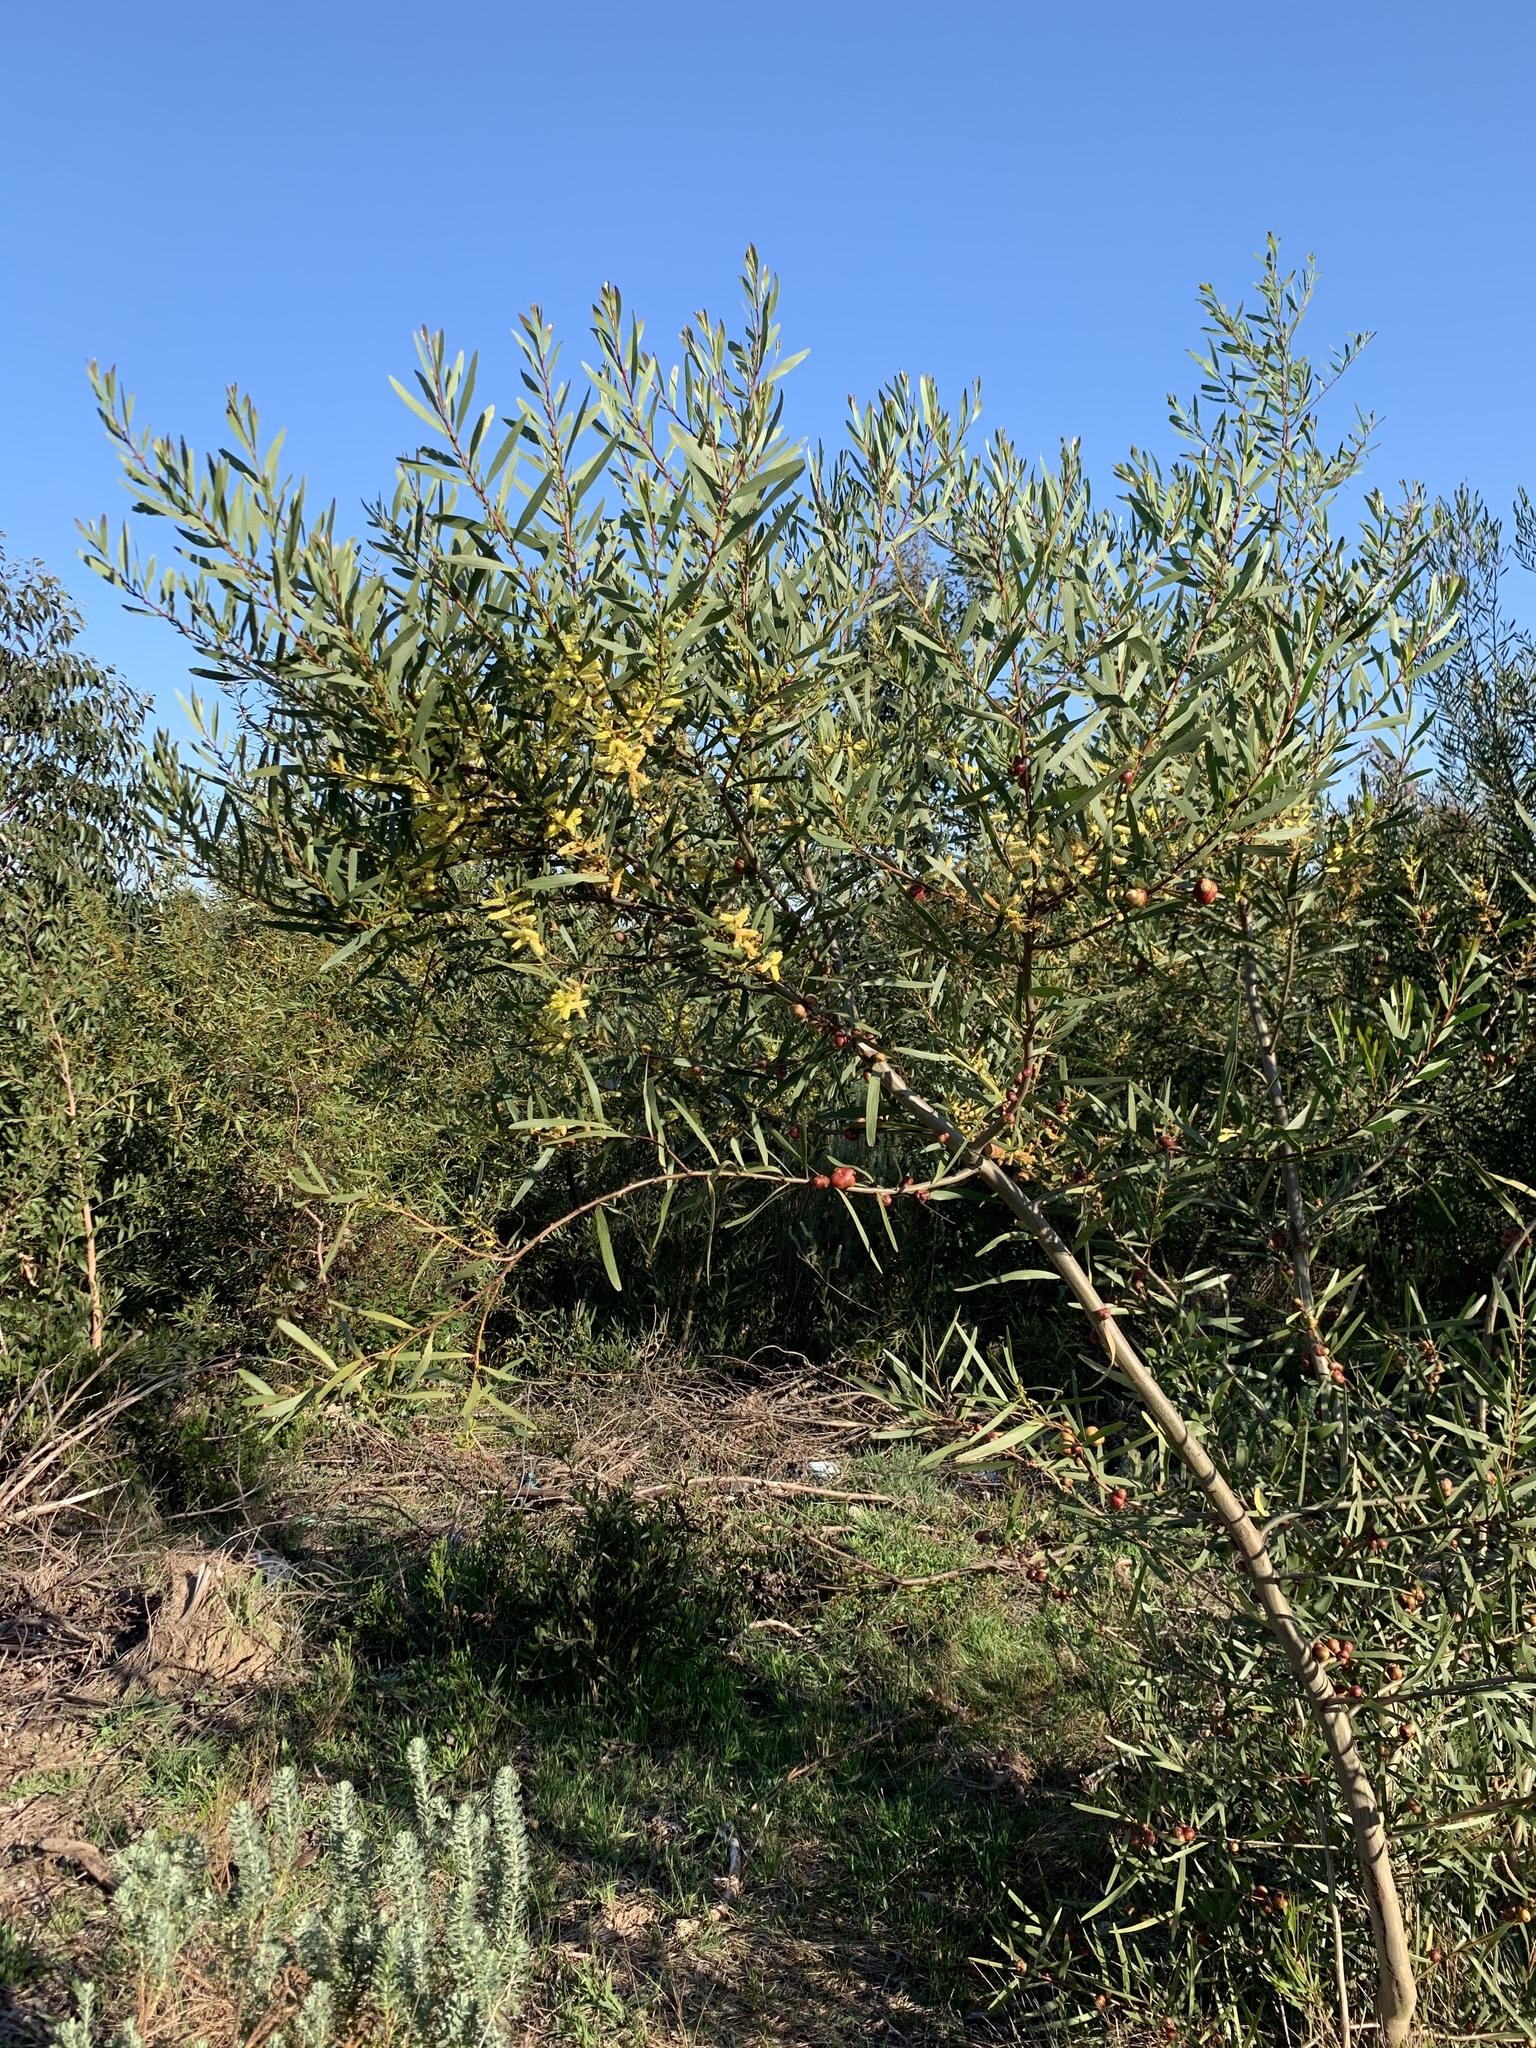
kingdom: Plantae
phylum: Tracheophyta
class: Magnoliopsida
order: Fabales
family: Fabaceae
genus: Acacia
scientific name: Acacia longifolia
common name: Sydney golden wattle
